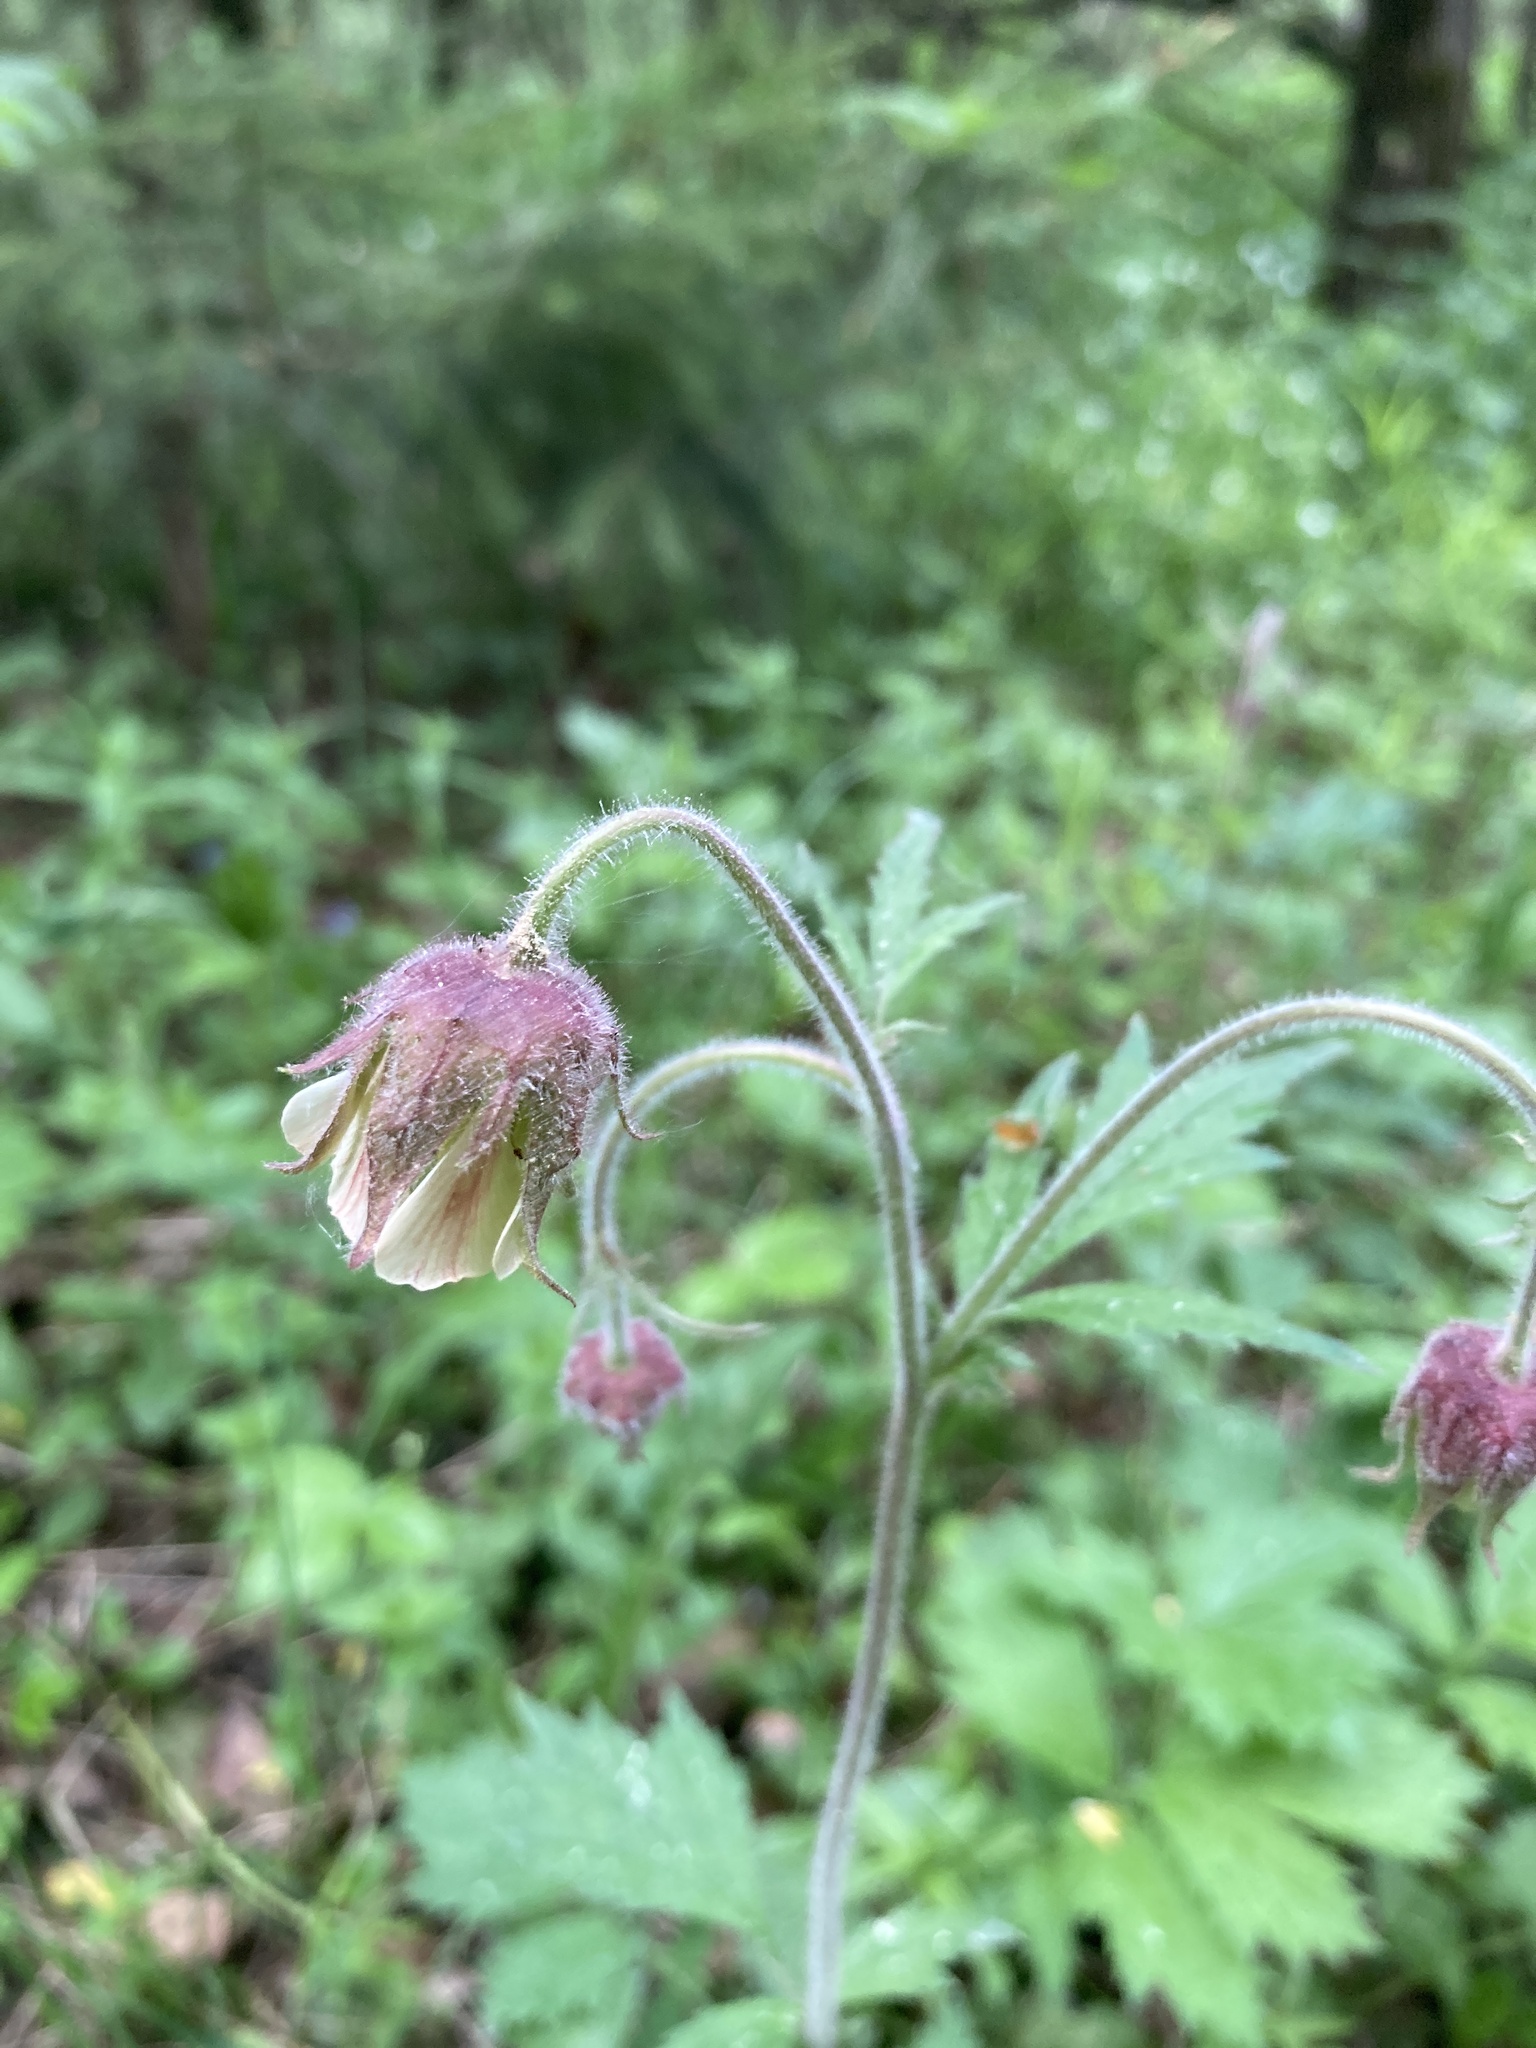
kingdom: Plantae
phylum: Tracheophyta
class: Magnoliopsida
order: Rosales
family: Rosaceae
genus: Geum
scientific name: Geum rivale
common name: Water avens
